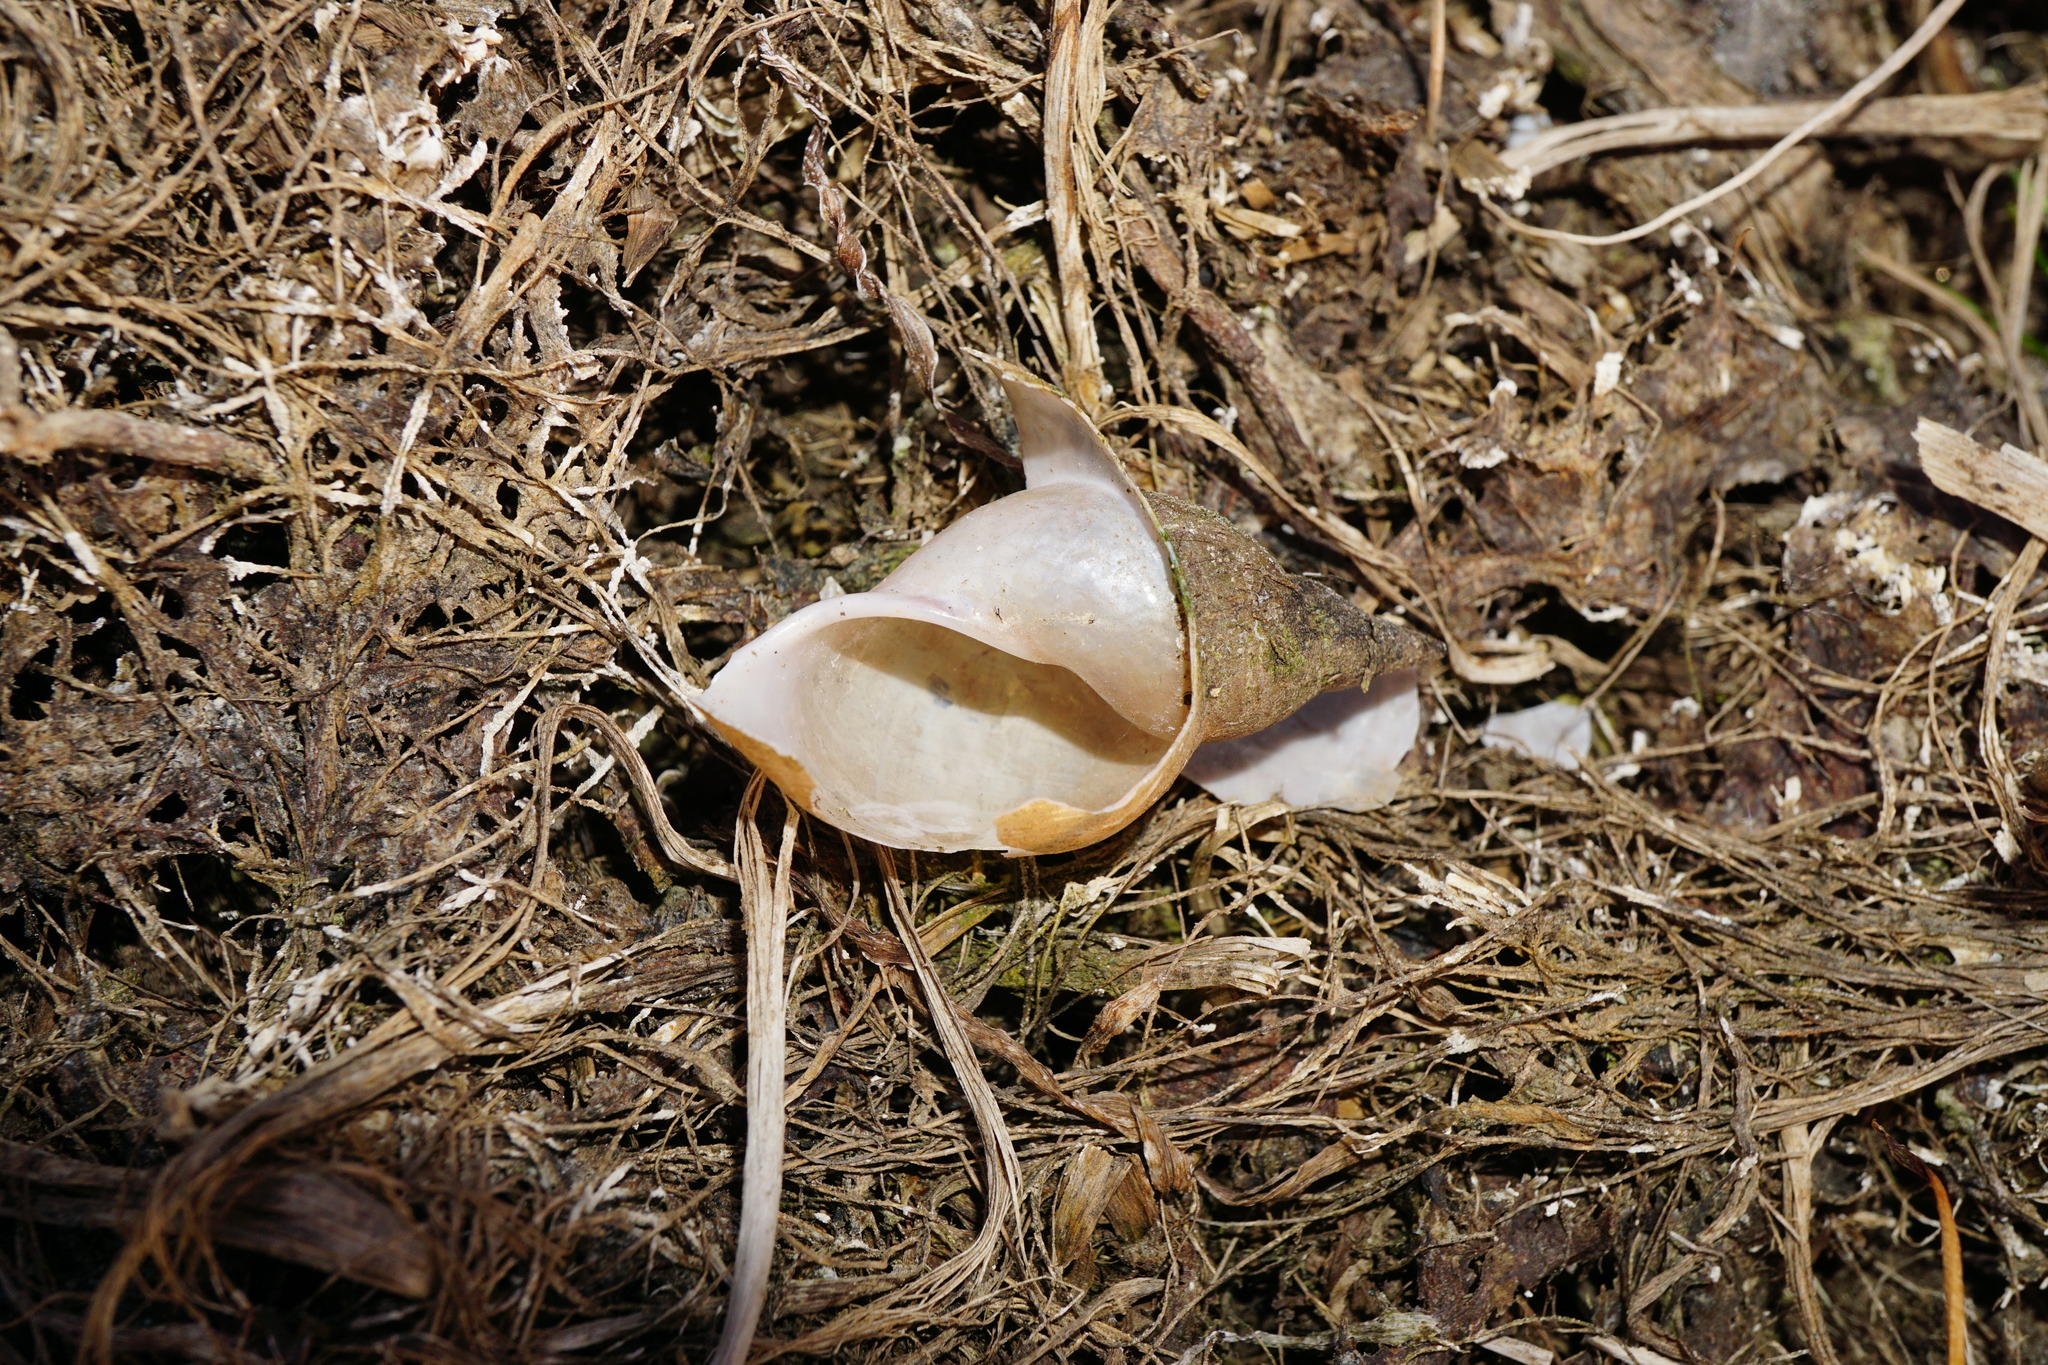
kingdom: Animalia
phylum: Mollusca
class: Gastropoda
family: Lymnaeidae
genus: Lymnaea
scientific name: Lymnaea stagnalis
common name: Great pond snail
